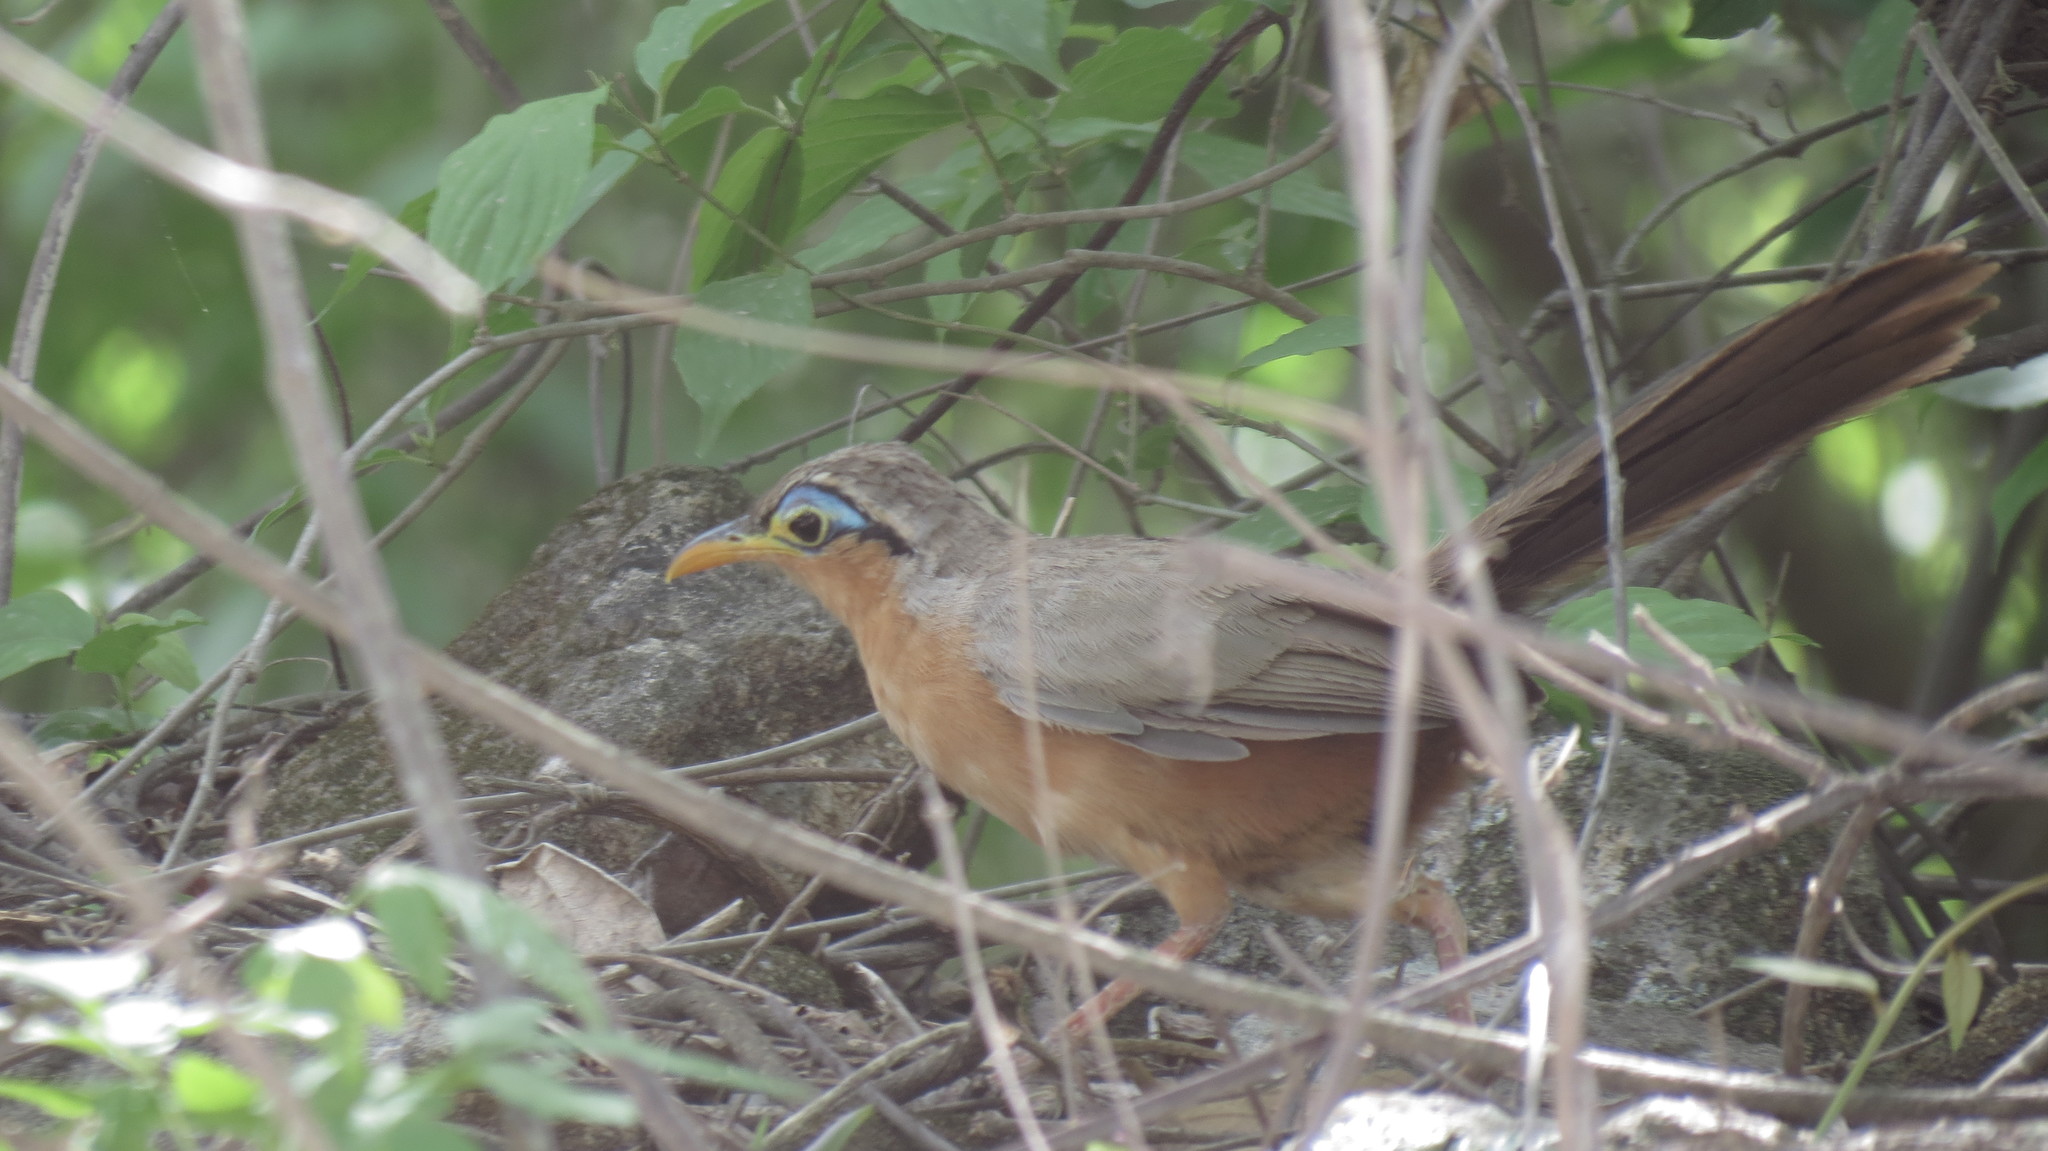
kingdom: Animalia
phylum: Chordata
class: Aves
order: Cuculiformes
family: Cuculidae
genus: Morococcyx
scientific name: Morococcyx erythropygus
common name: Lesser ground-cuckoo
